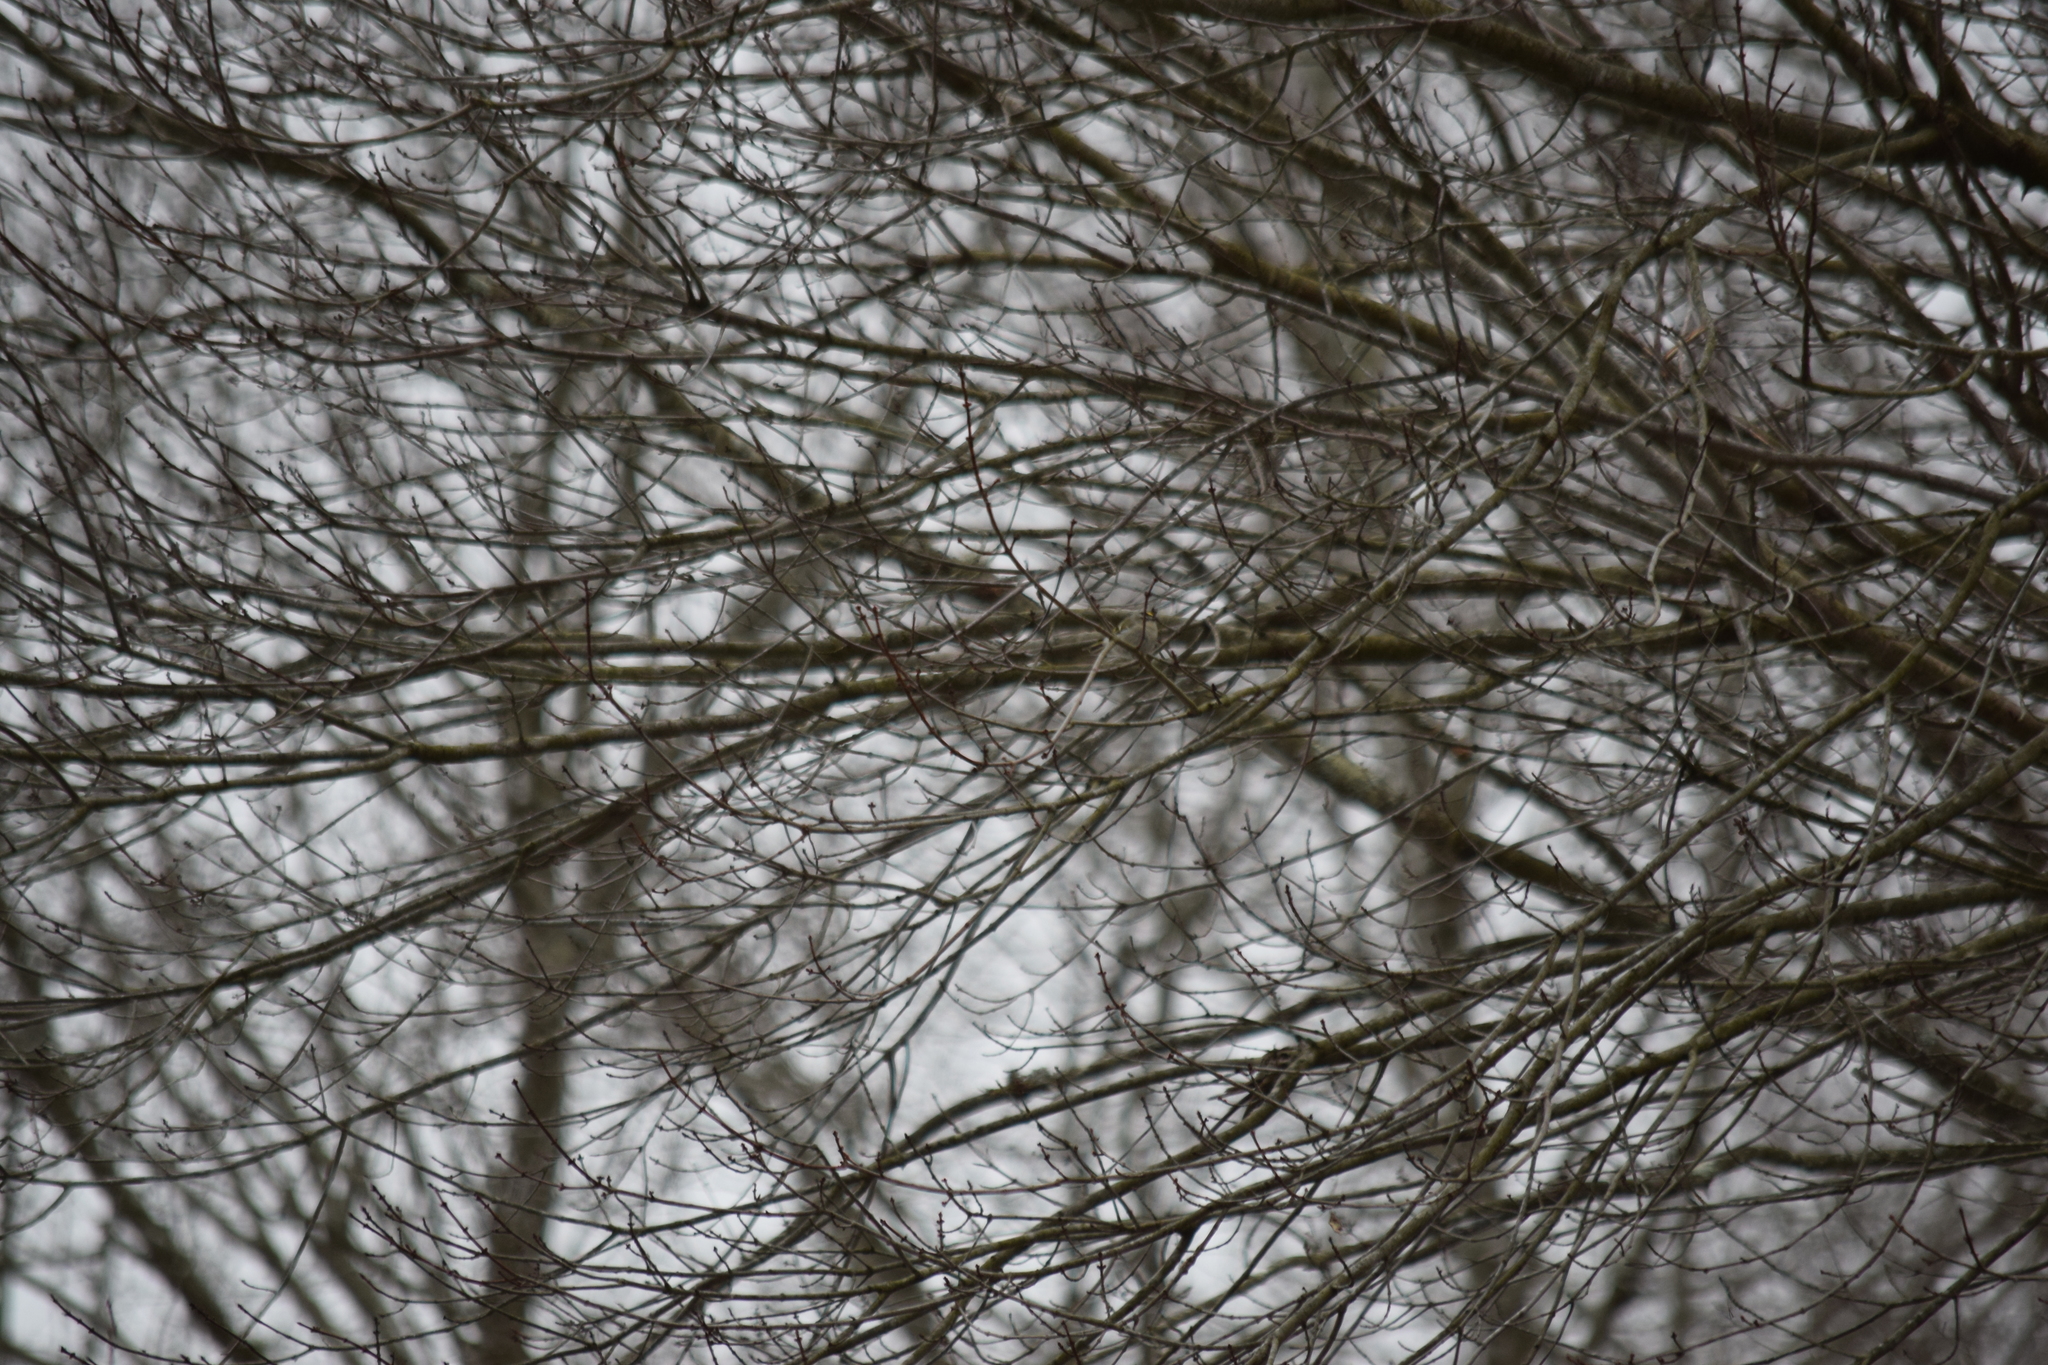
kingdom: Animalia
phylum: Chordata
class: Aves
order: Passeriformes
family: Regulidae
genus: Regulus
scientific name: Regulus satrapa
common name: Golden-crowned kinglet
